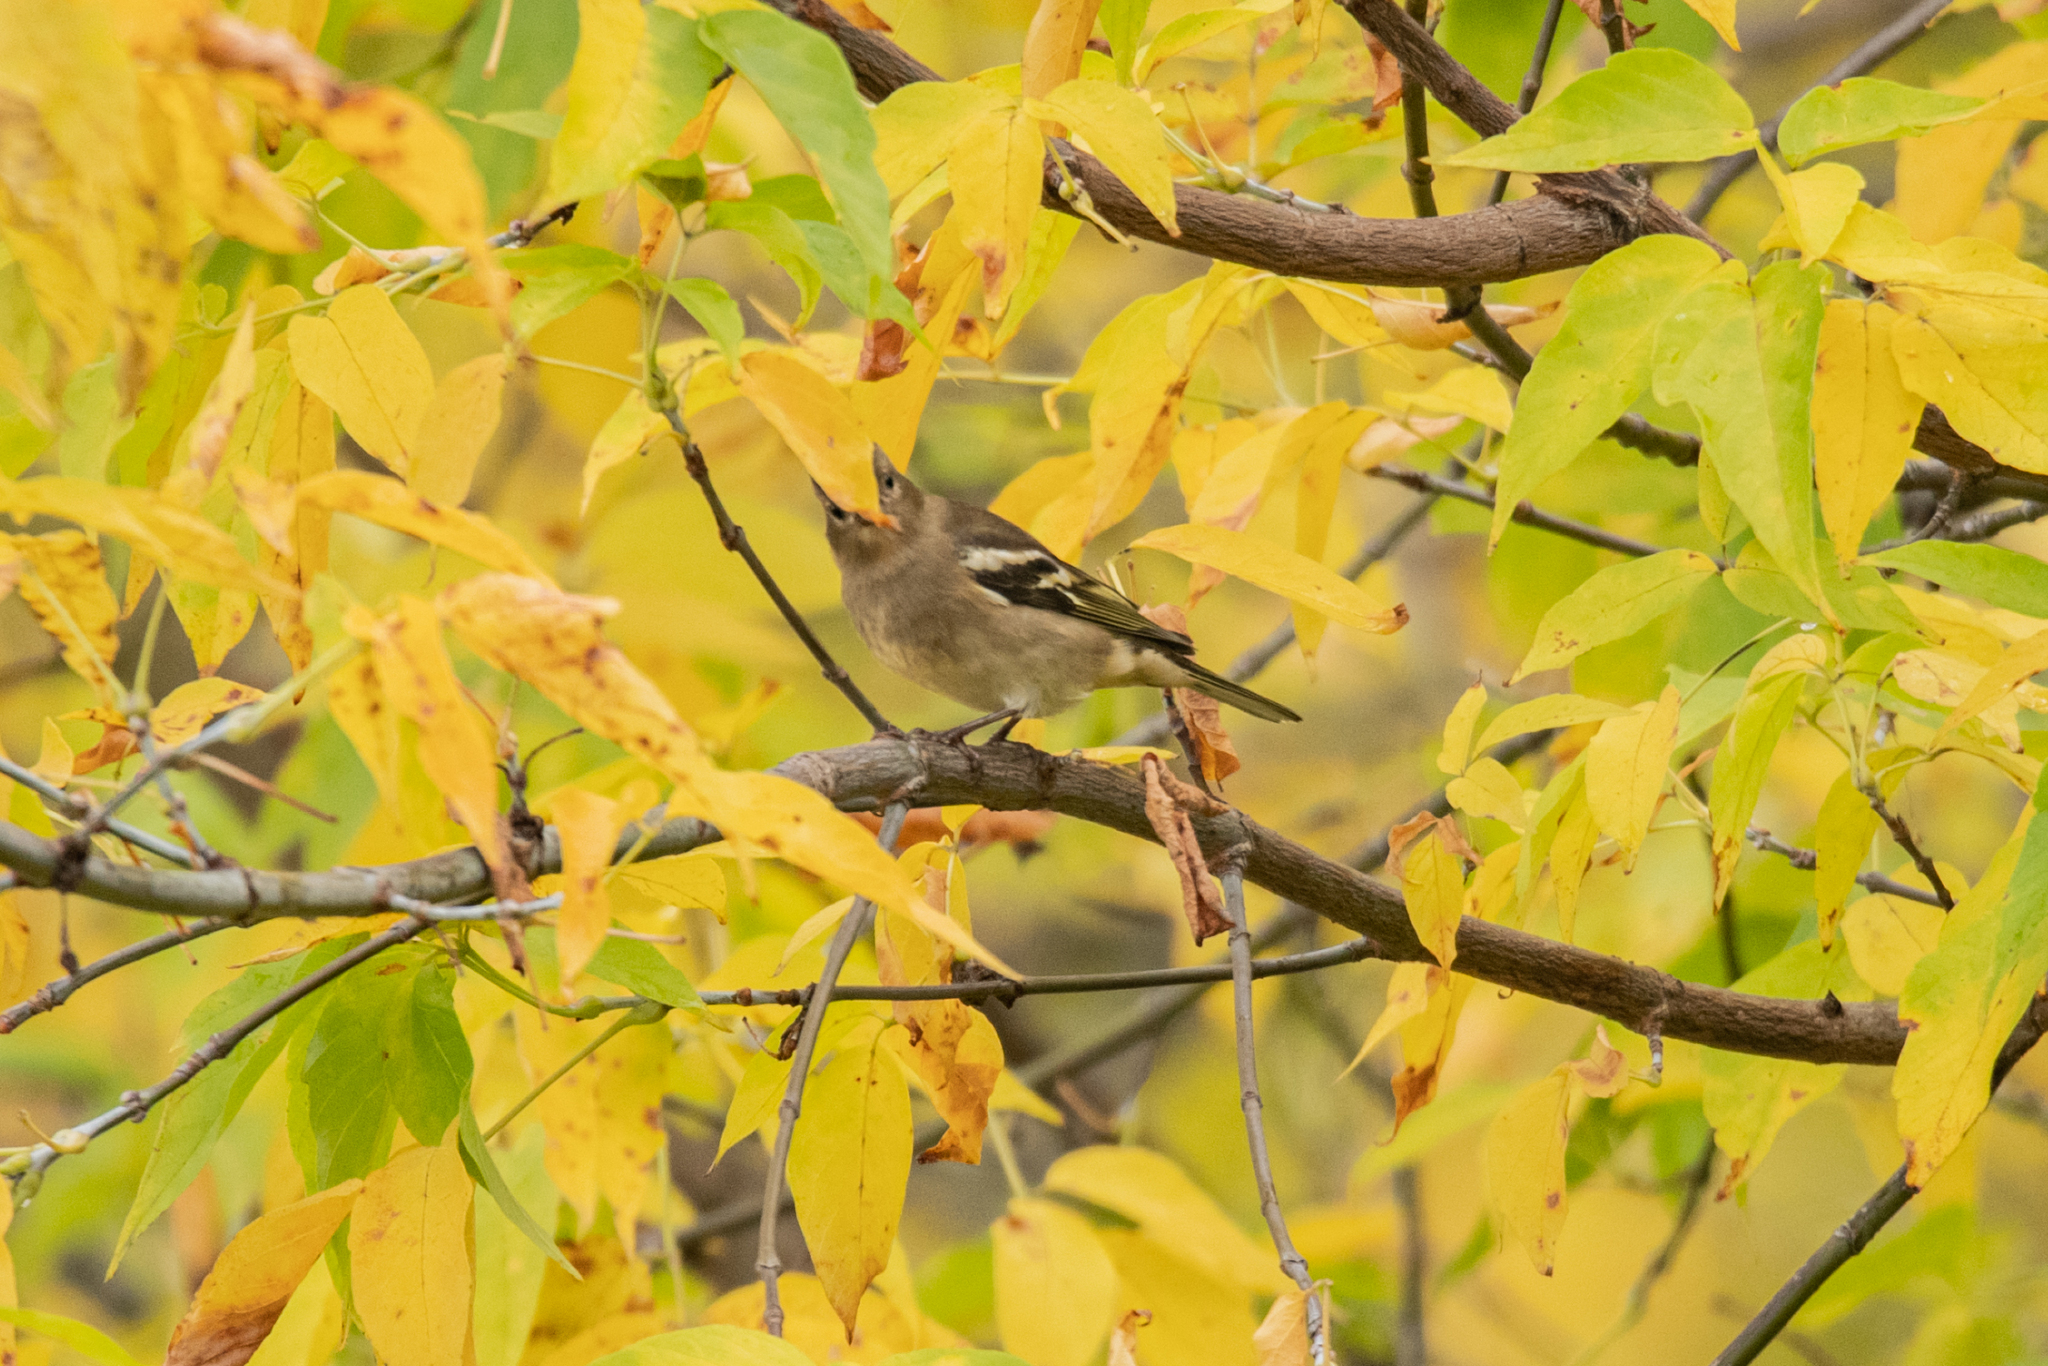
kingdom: Animalia
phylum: Chordata
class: Aves
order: Passeriformes
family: Fringillidae
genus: Fringilla
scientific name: Fringilla coelebs
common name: Common chaffinch
